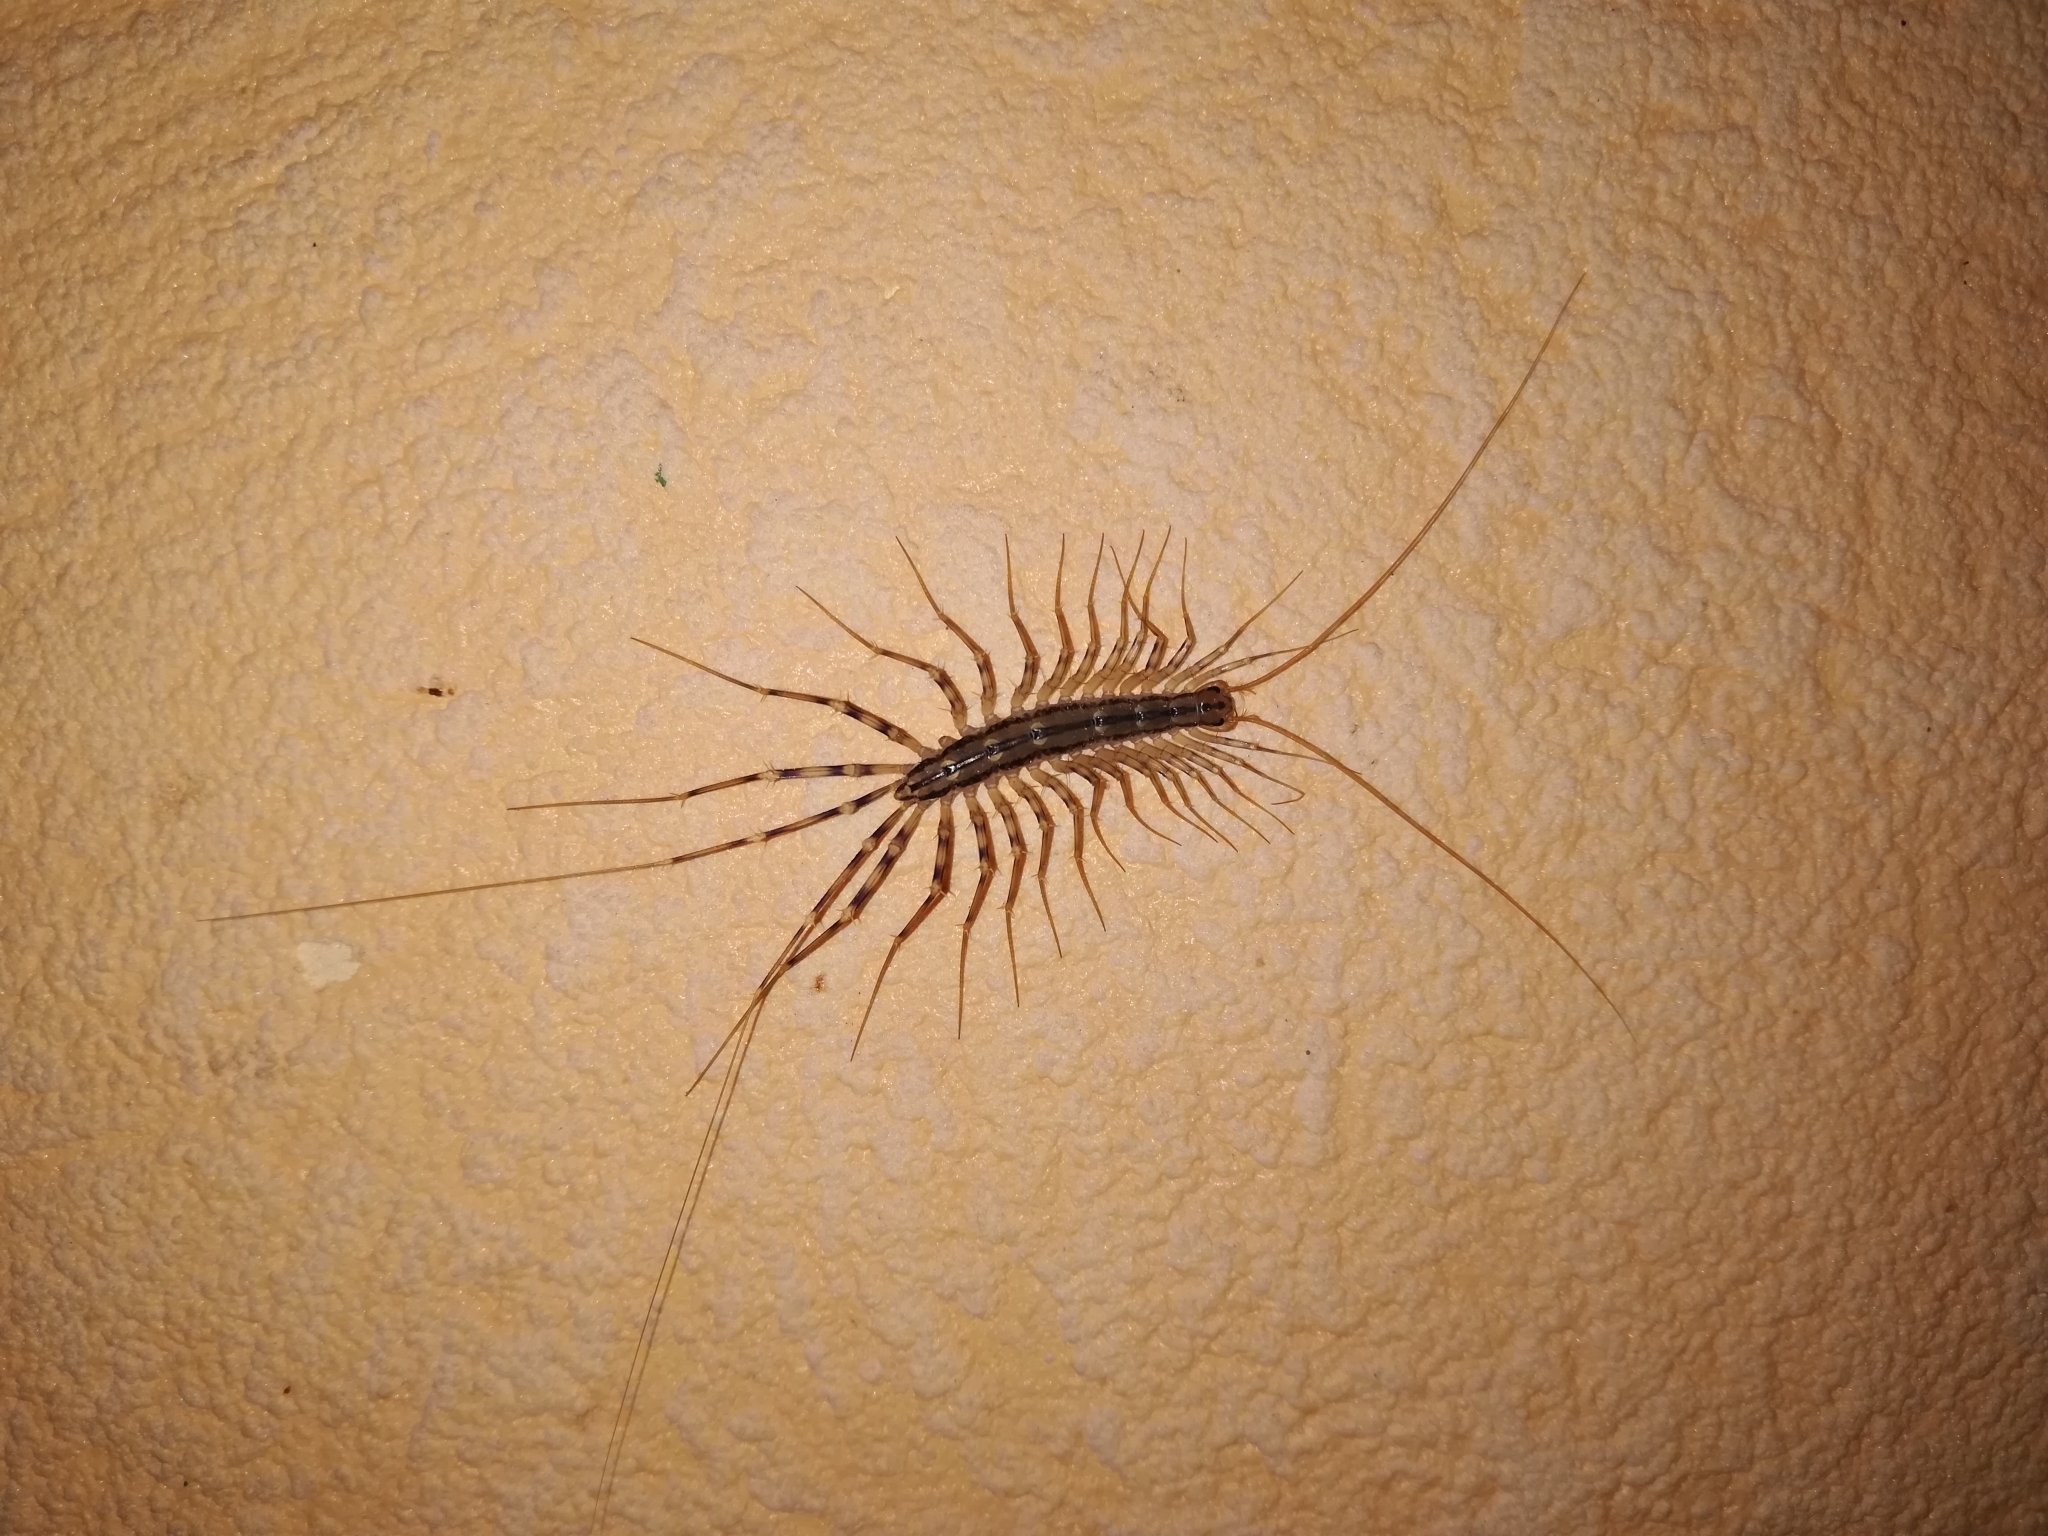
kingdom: Animalia
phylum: Arthropoda
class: Chilopoda
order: Scutigeromorpha
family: Scutigeridae
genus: Scutigera
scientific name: Scutigera coleoptrata
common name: House centipede
